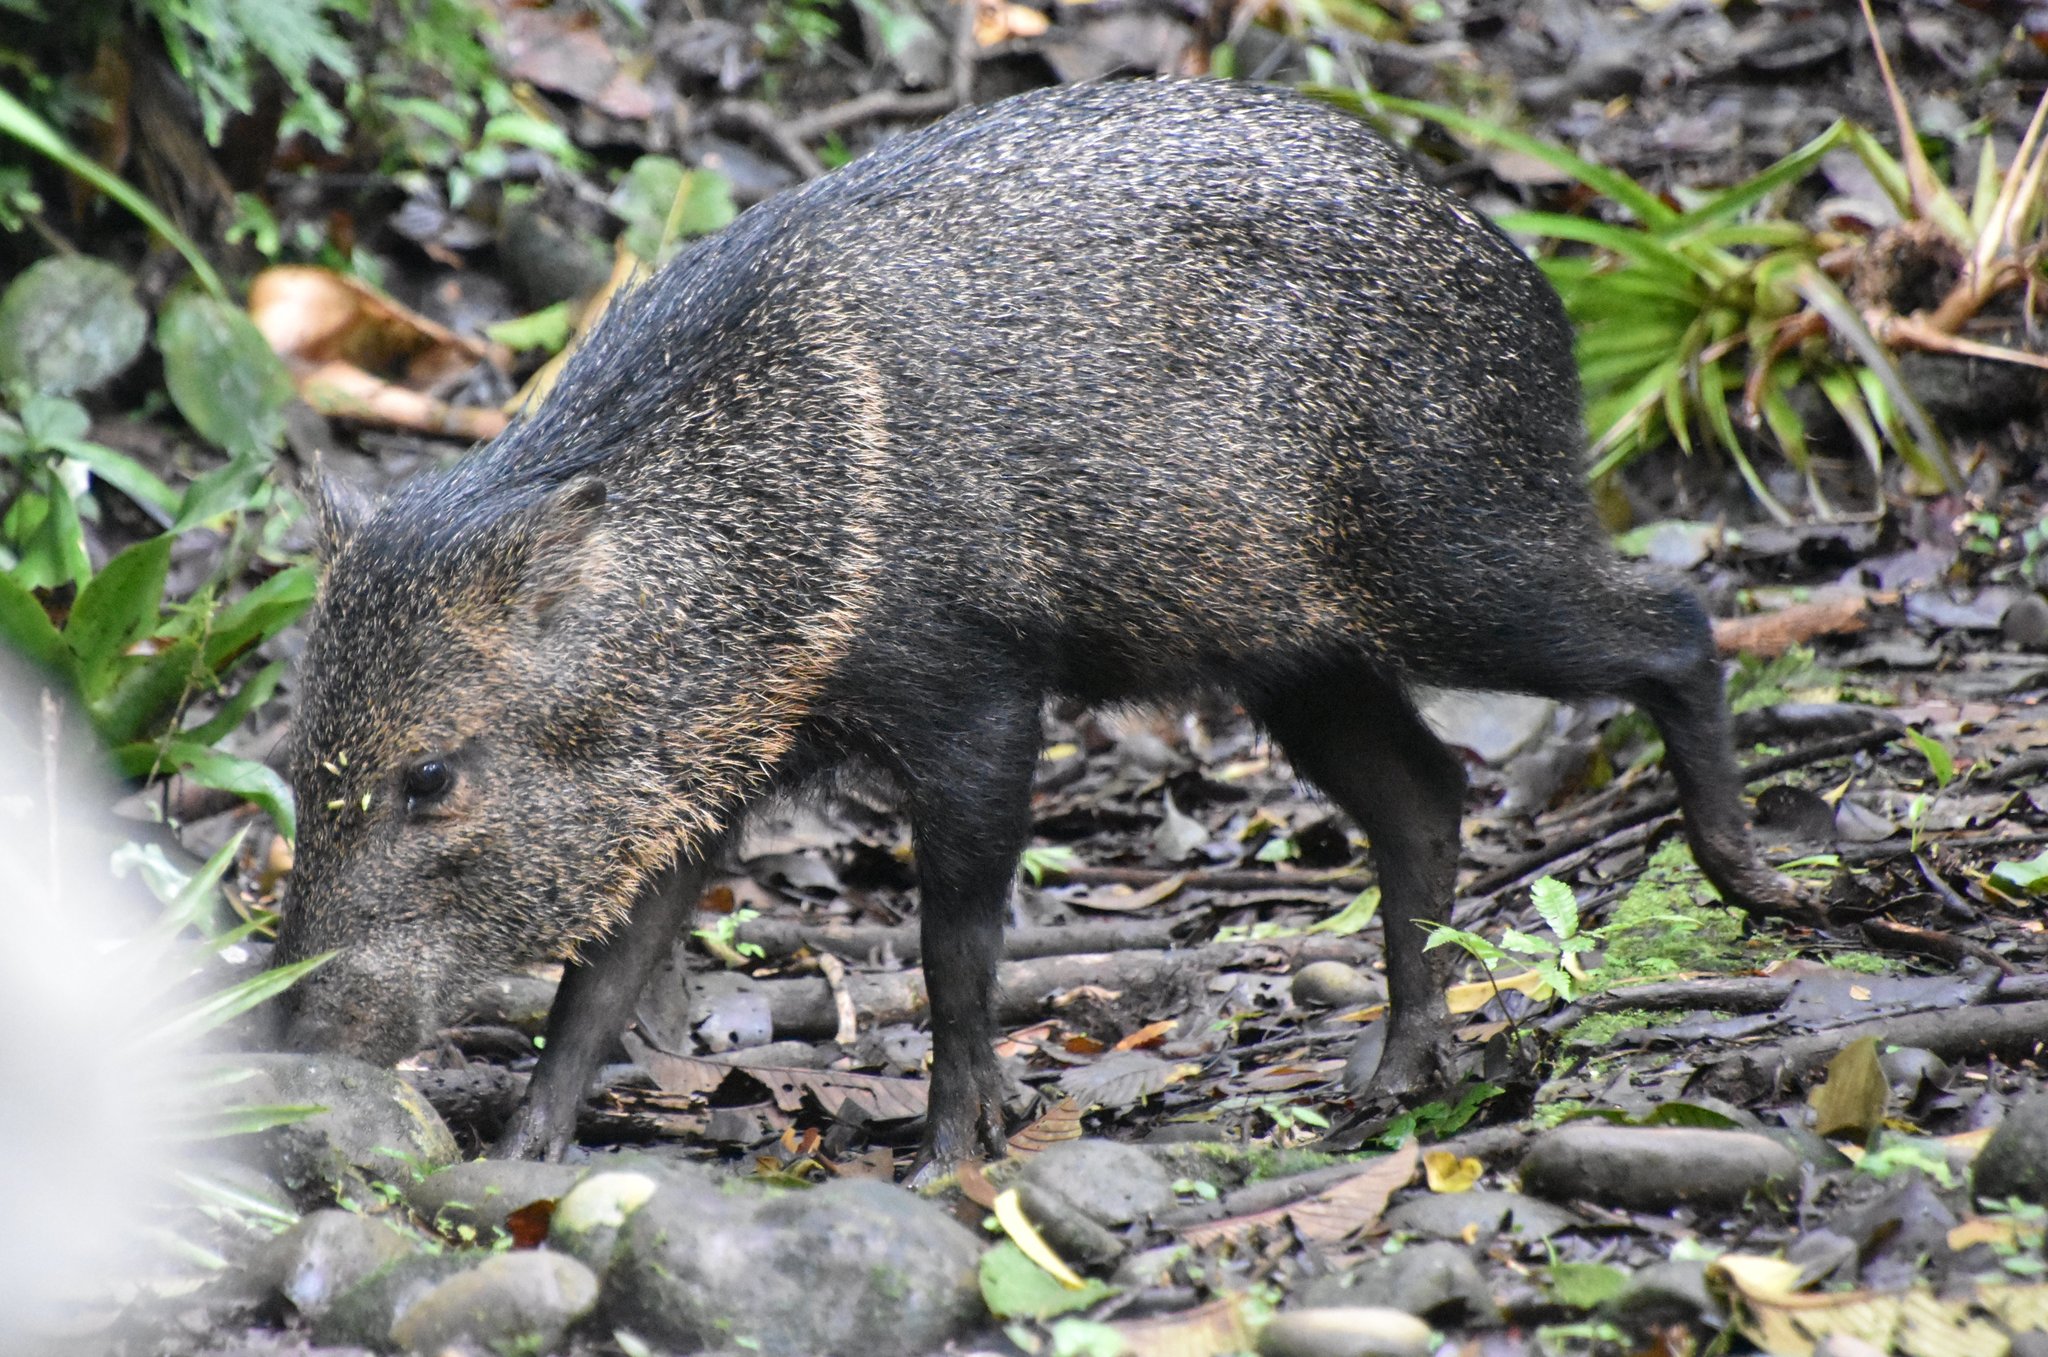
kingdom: Animalia
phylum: Chordata
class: Mammalia
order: Artiodactyla
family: Tayassuidae
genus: Pecari
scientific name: Pecari tajacu
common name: Collared peccary
